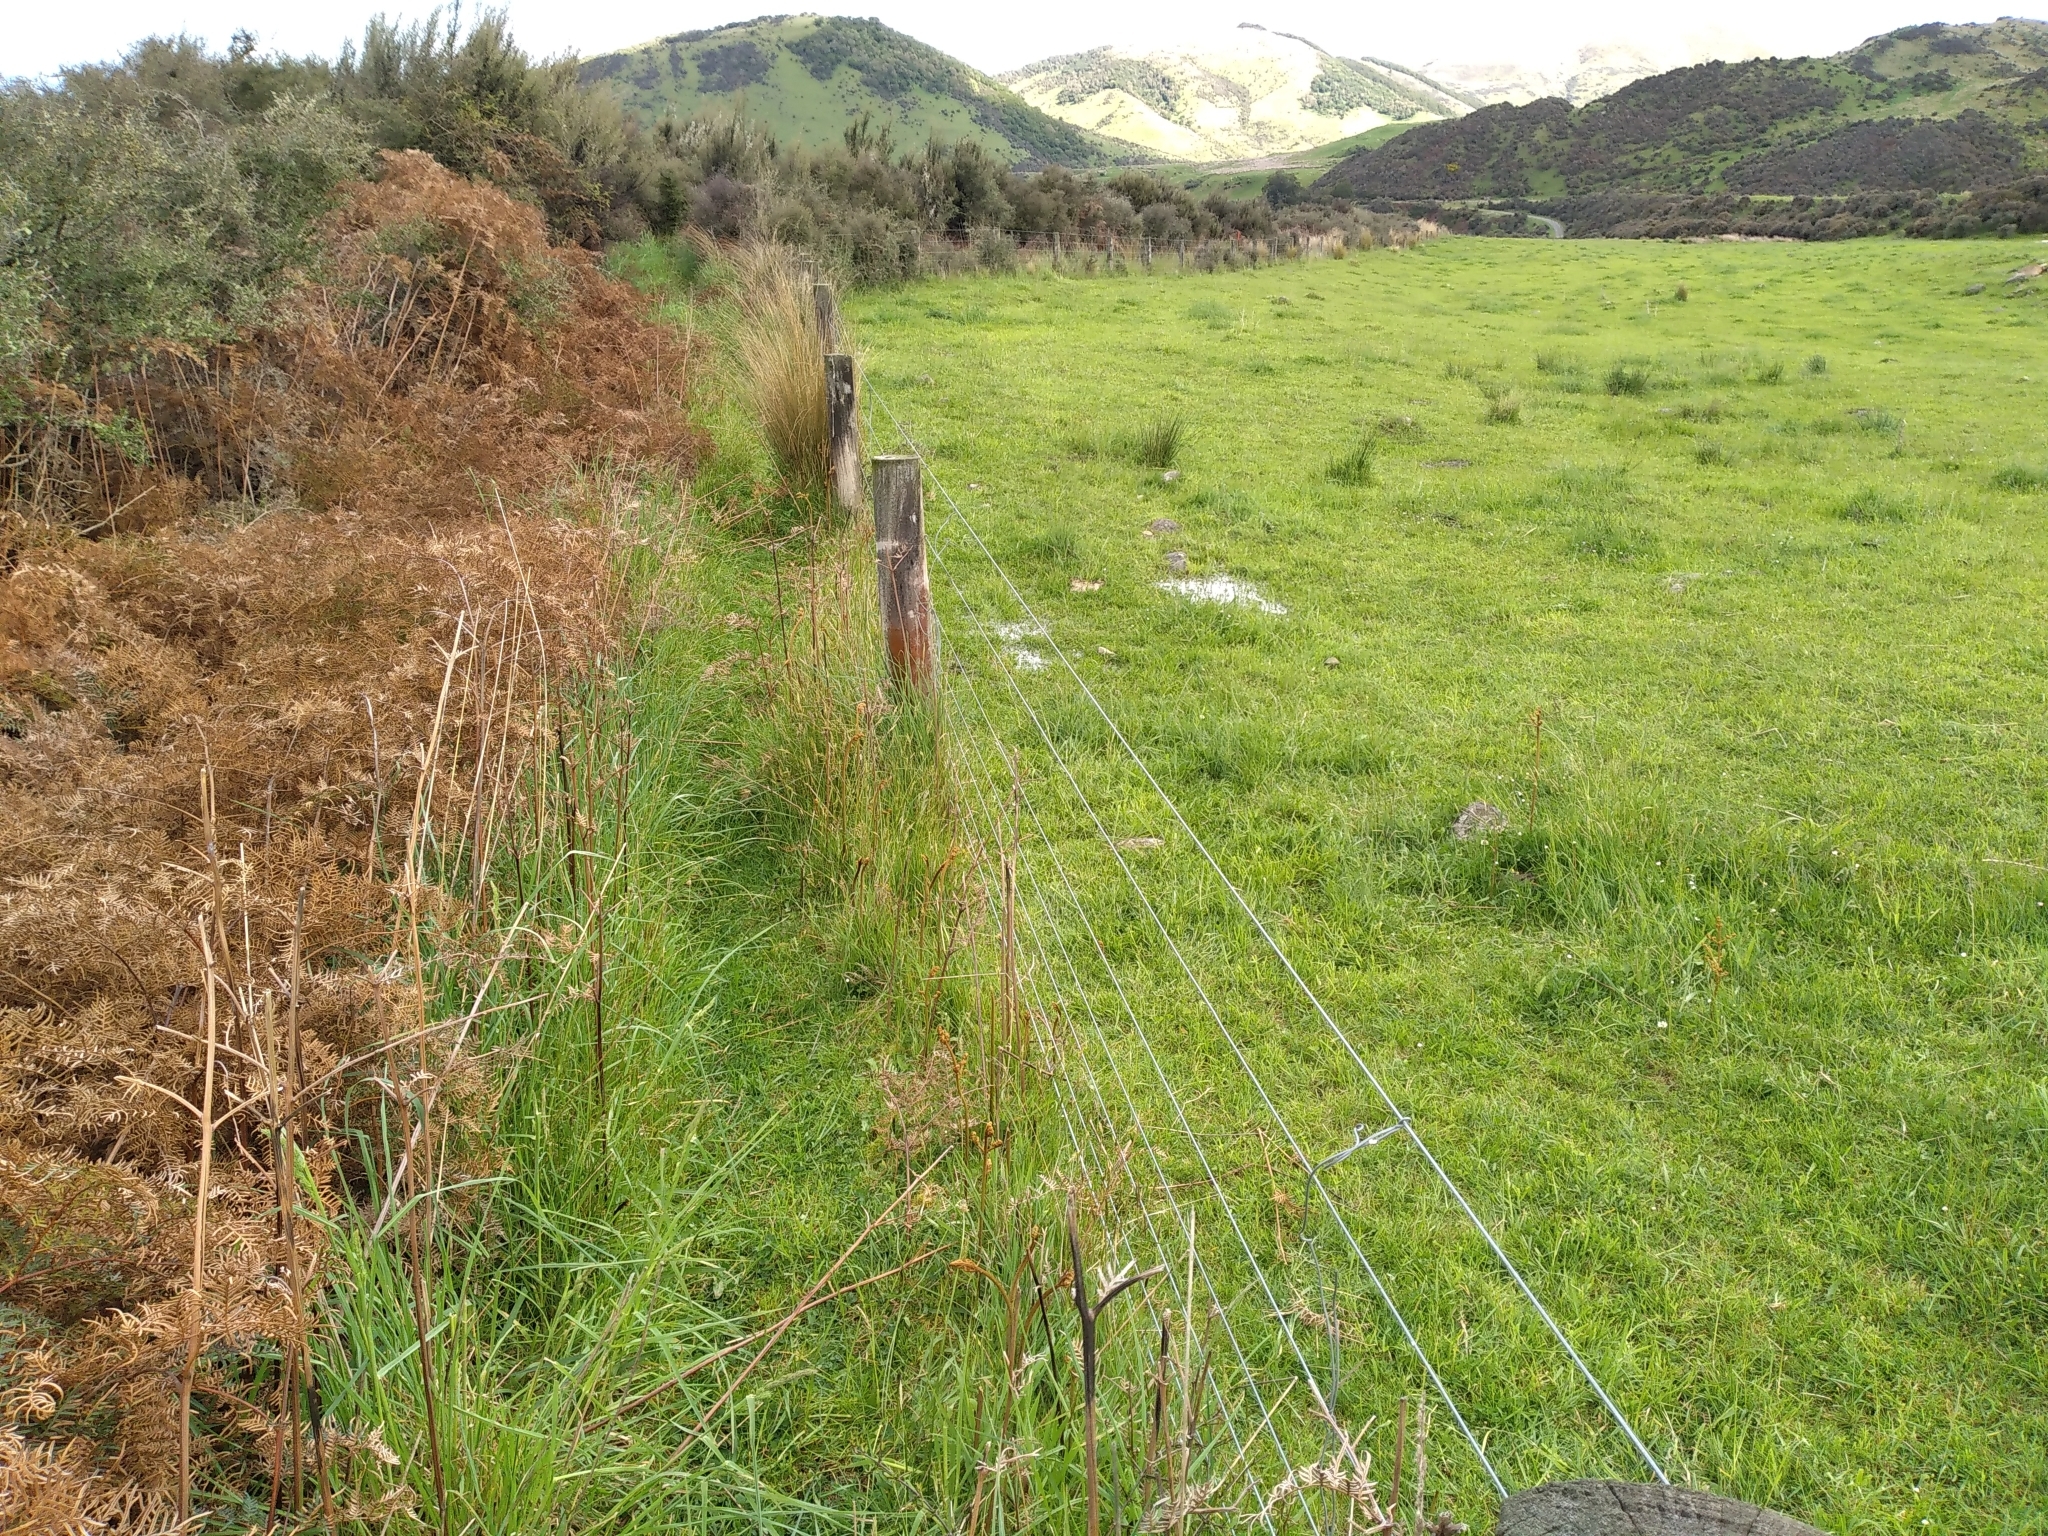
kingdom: Plantae
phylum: Tracheophyta
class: Polypodiopsida
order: Polypodiales
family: Dennstaedtiaceae
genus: Pteridium
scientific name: Pteridium esculentum
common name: Bracken fern
